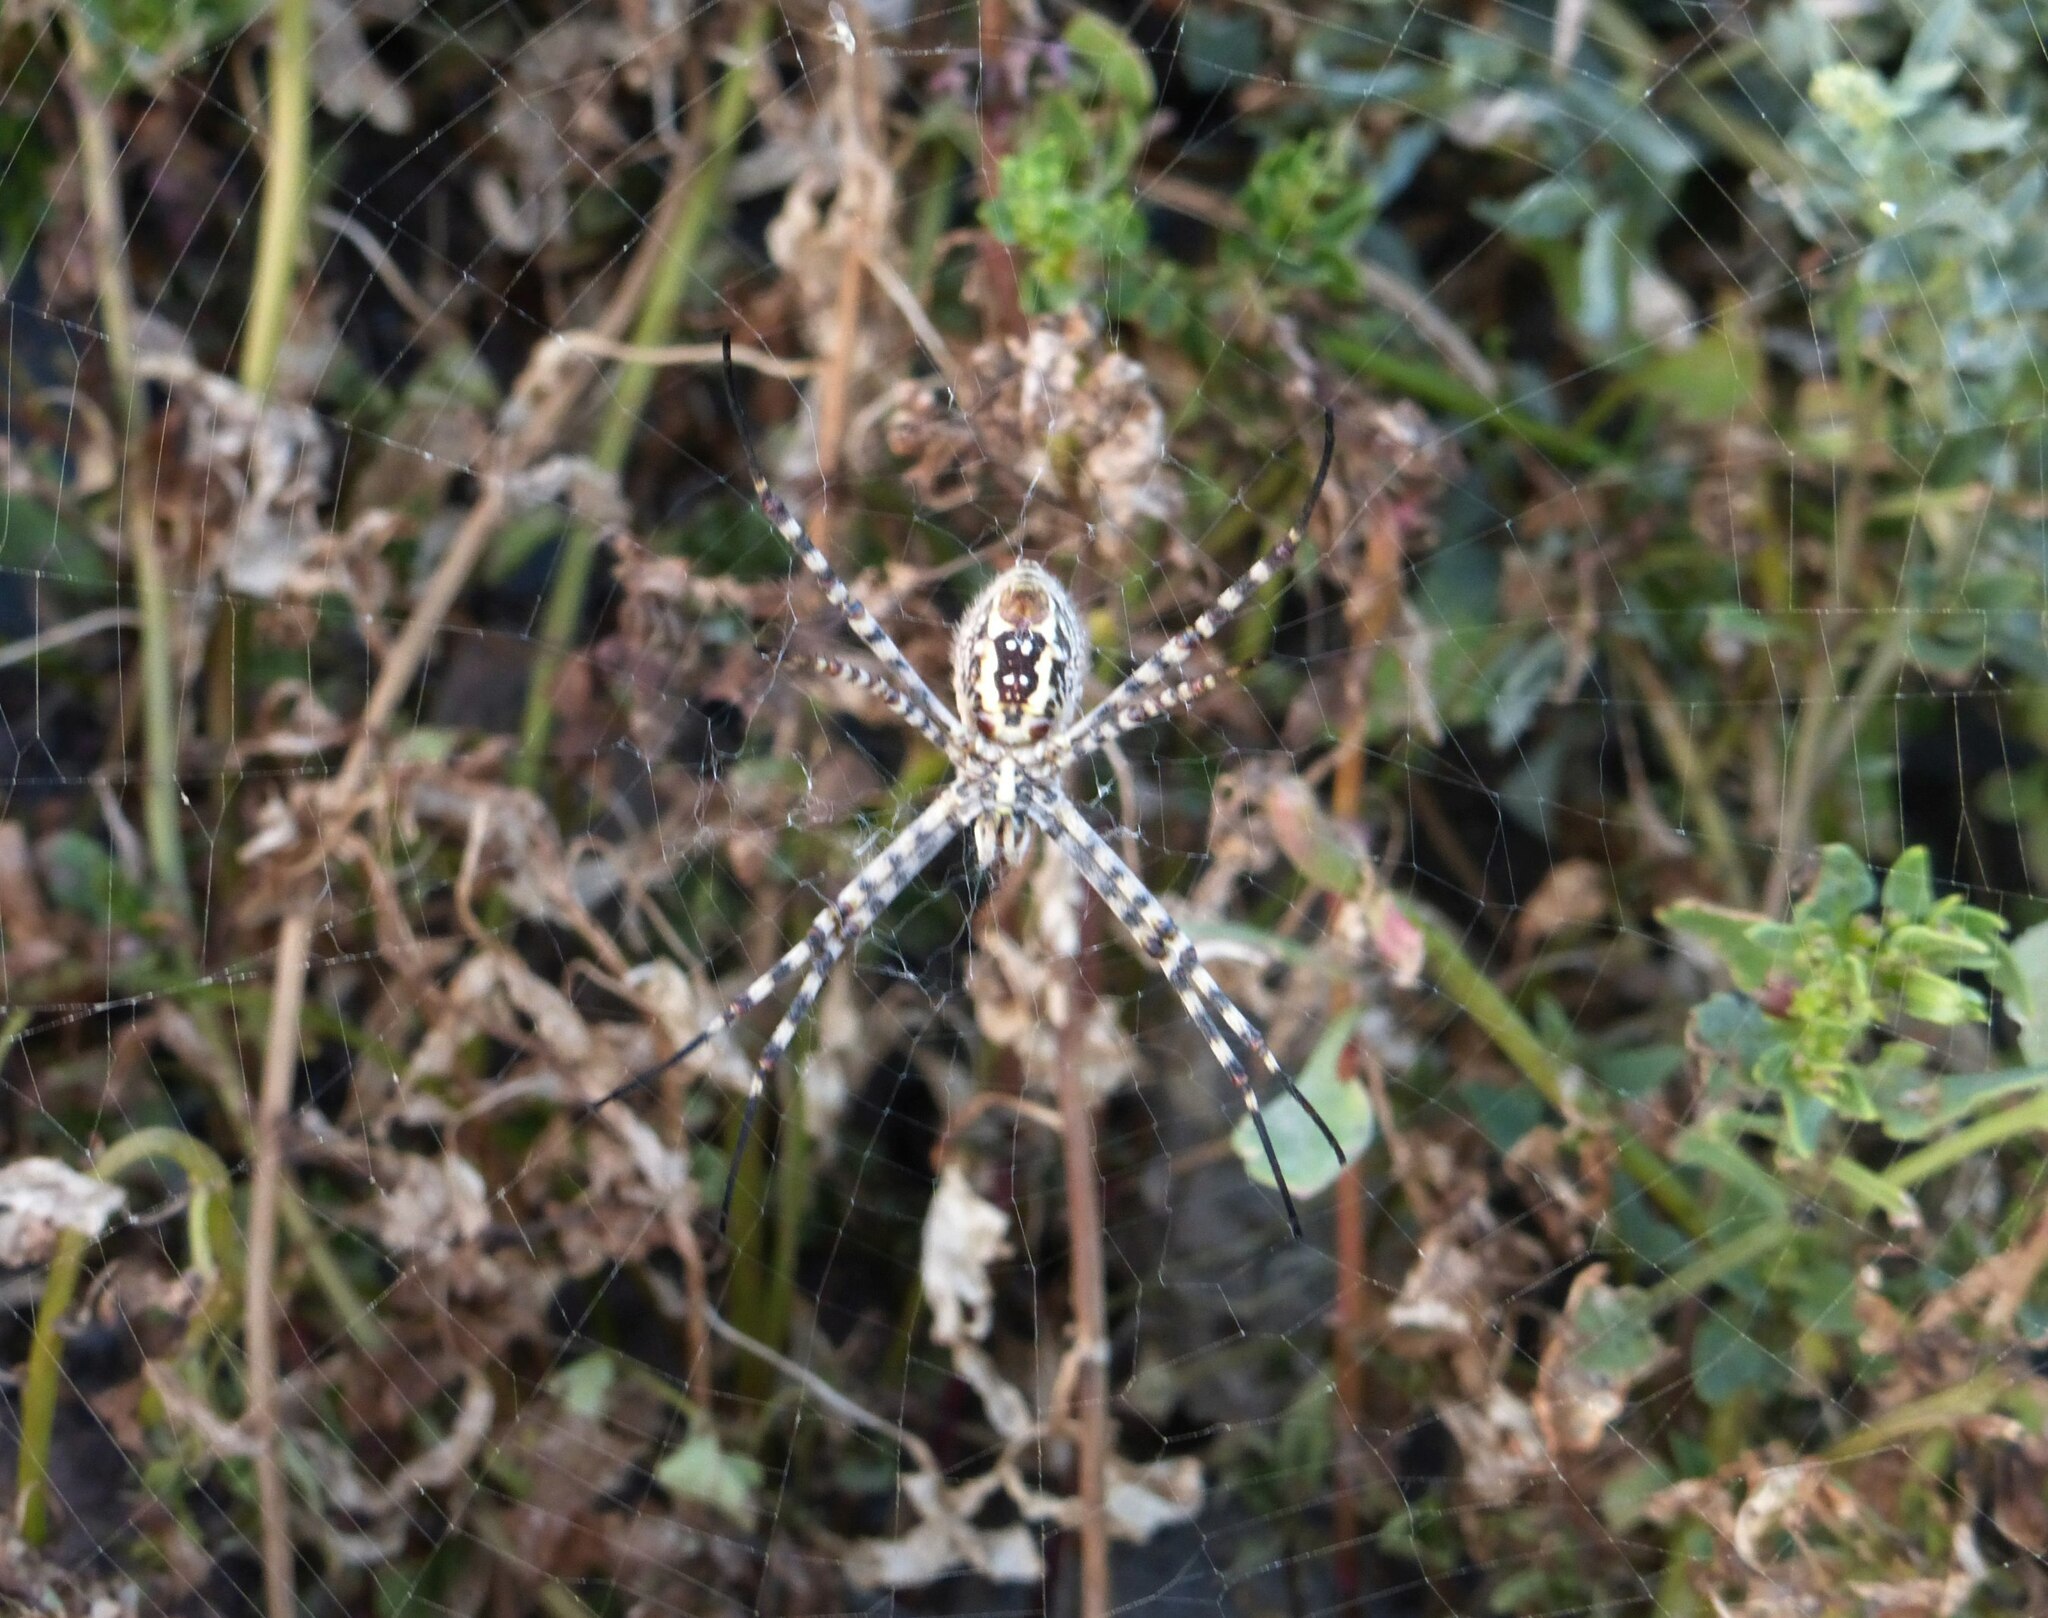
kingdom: Animalia
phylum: Arthropoda
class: Arachnida
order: Araneae
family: Araneidae
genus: Argiope
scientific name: Argiope trifasciata
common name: Banded garden spider
